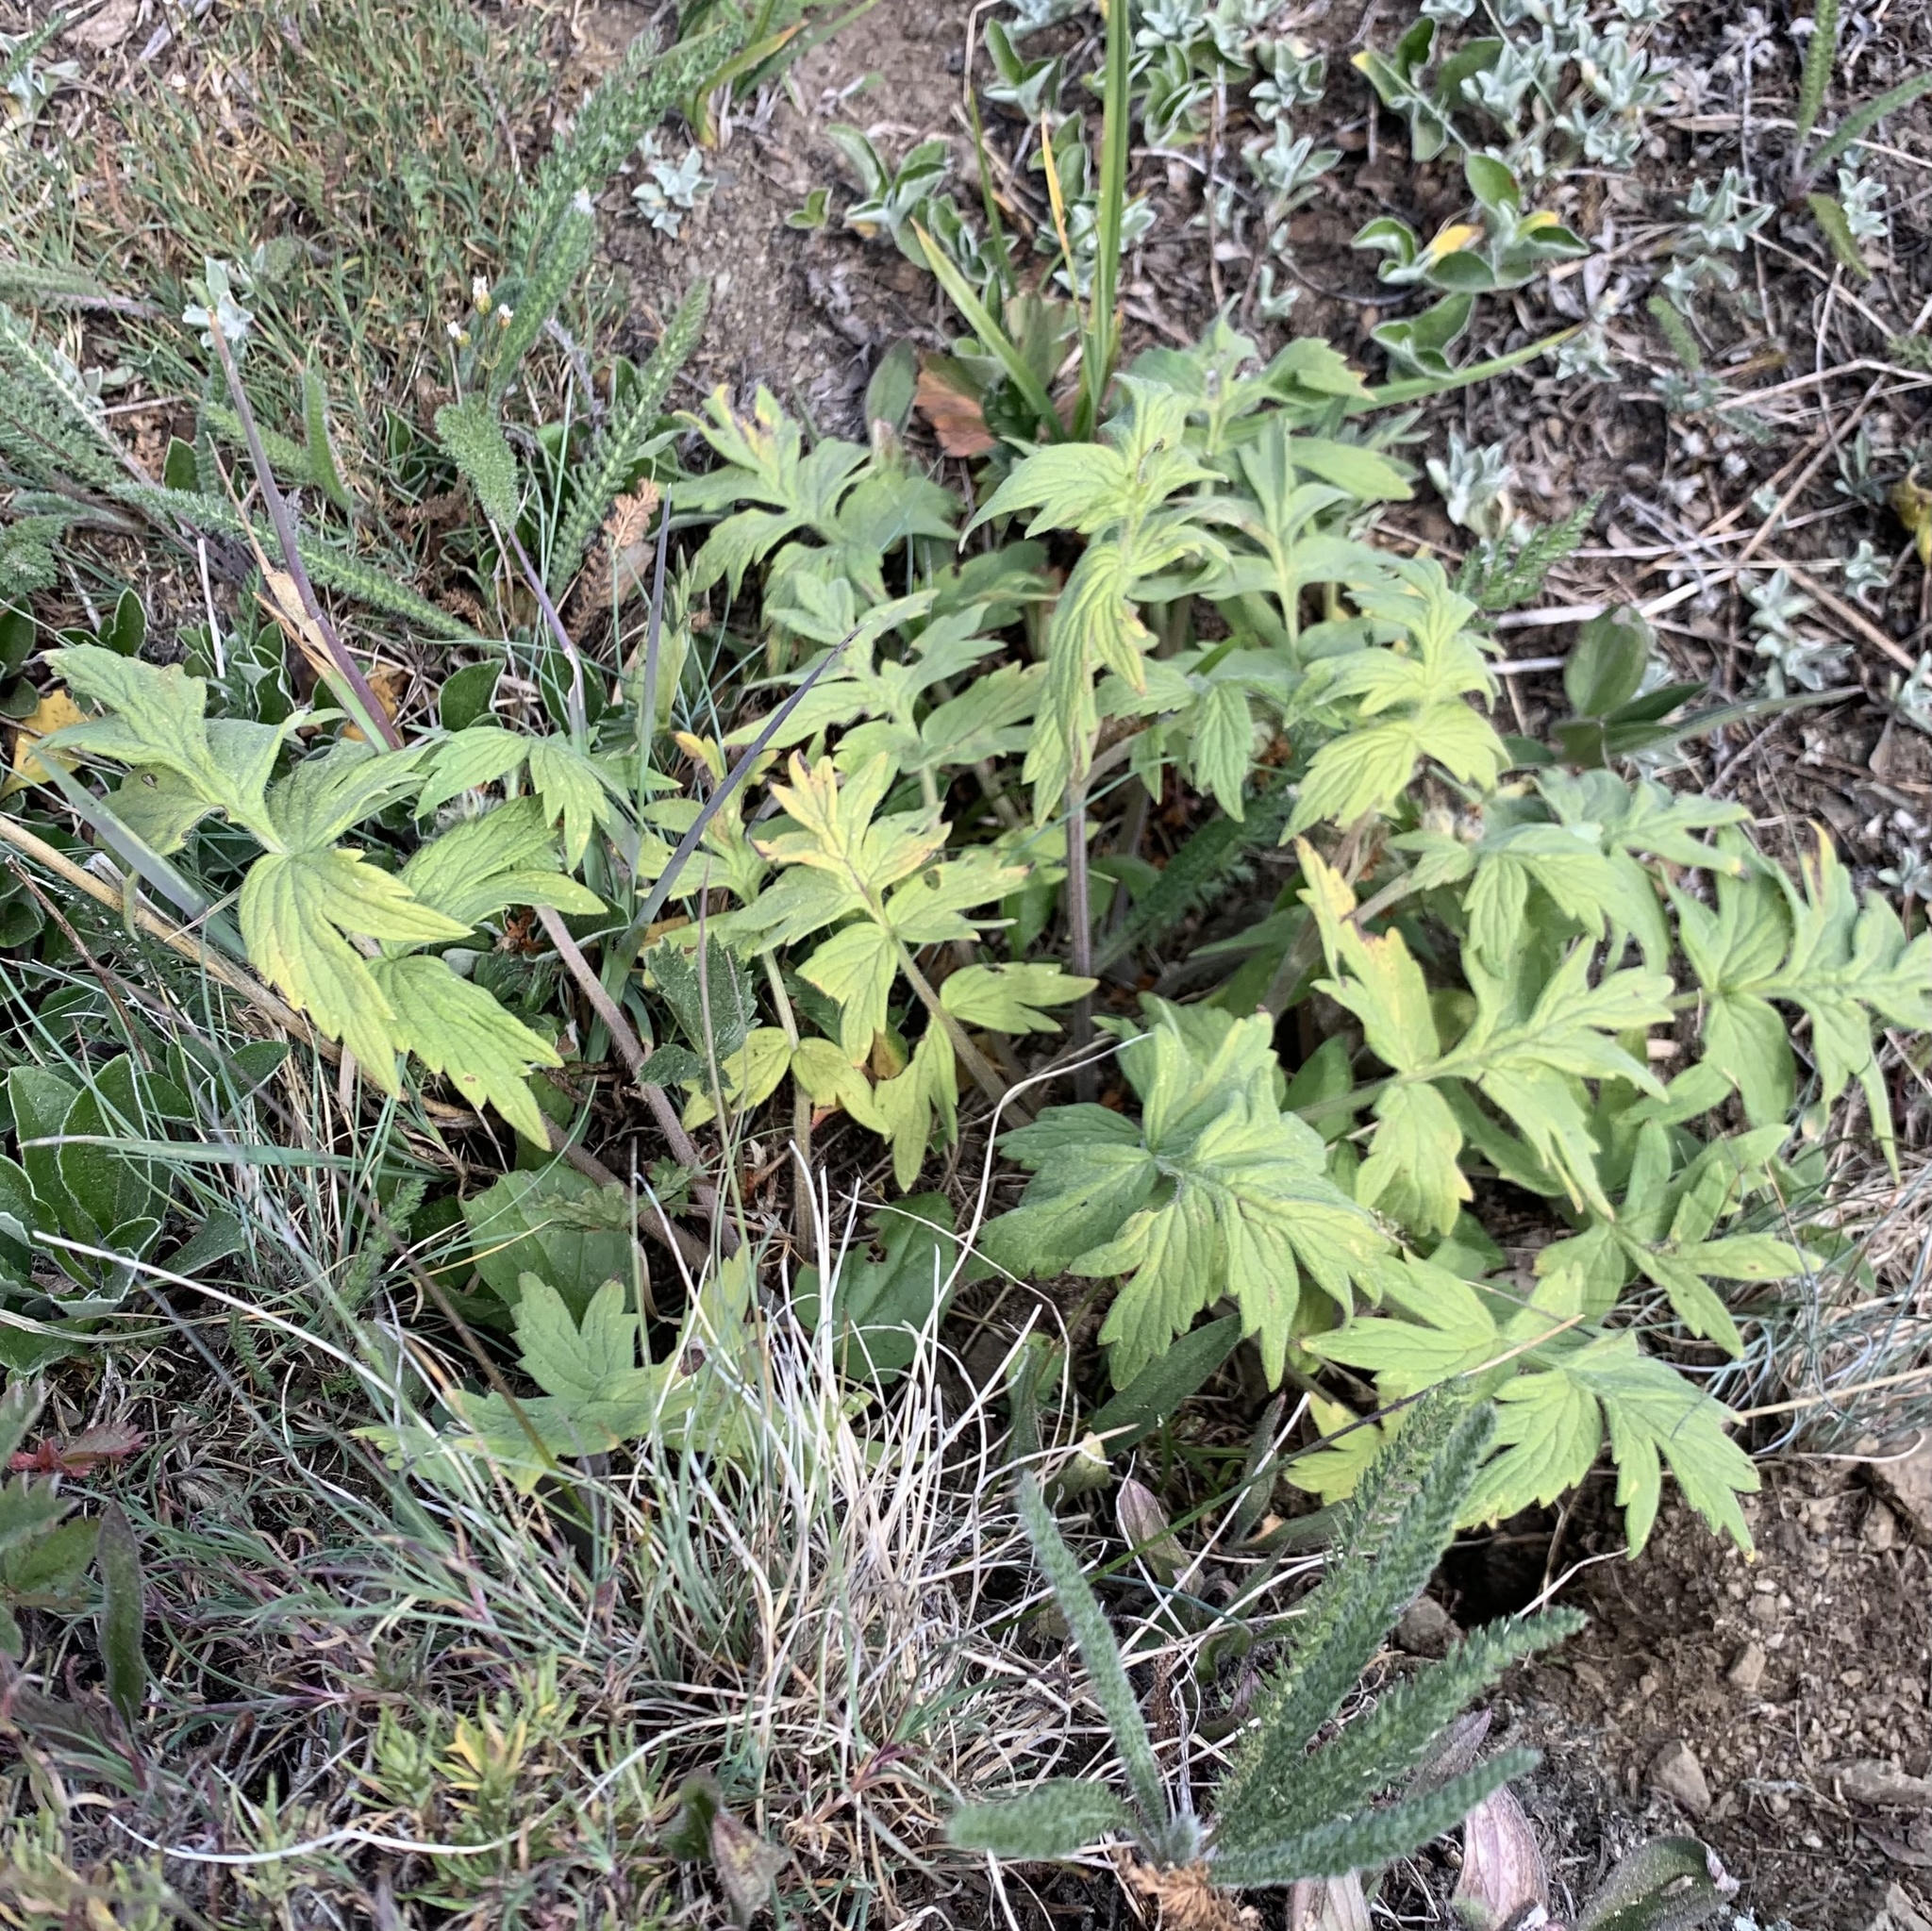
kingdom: Plantae
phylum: Tracheophyta
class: Magnoliopsida
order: Boraginales
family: Hydrophyllaceae
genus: Hydrophyllum
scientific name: Hydrophyllum fendleri
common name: Fendler's waterleaf
